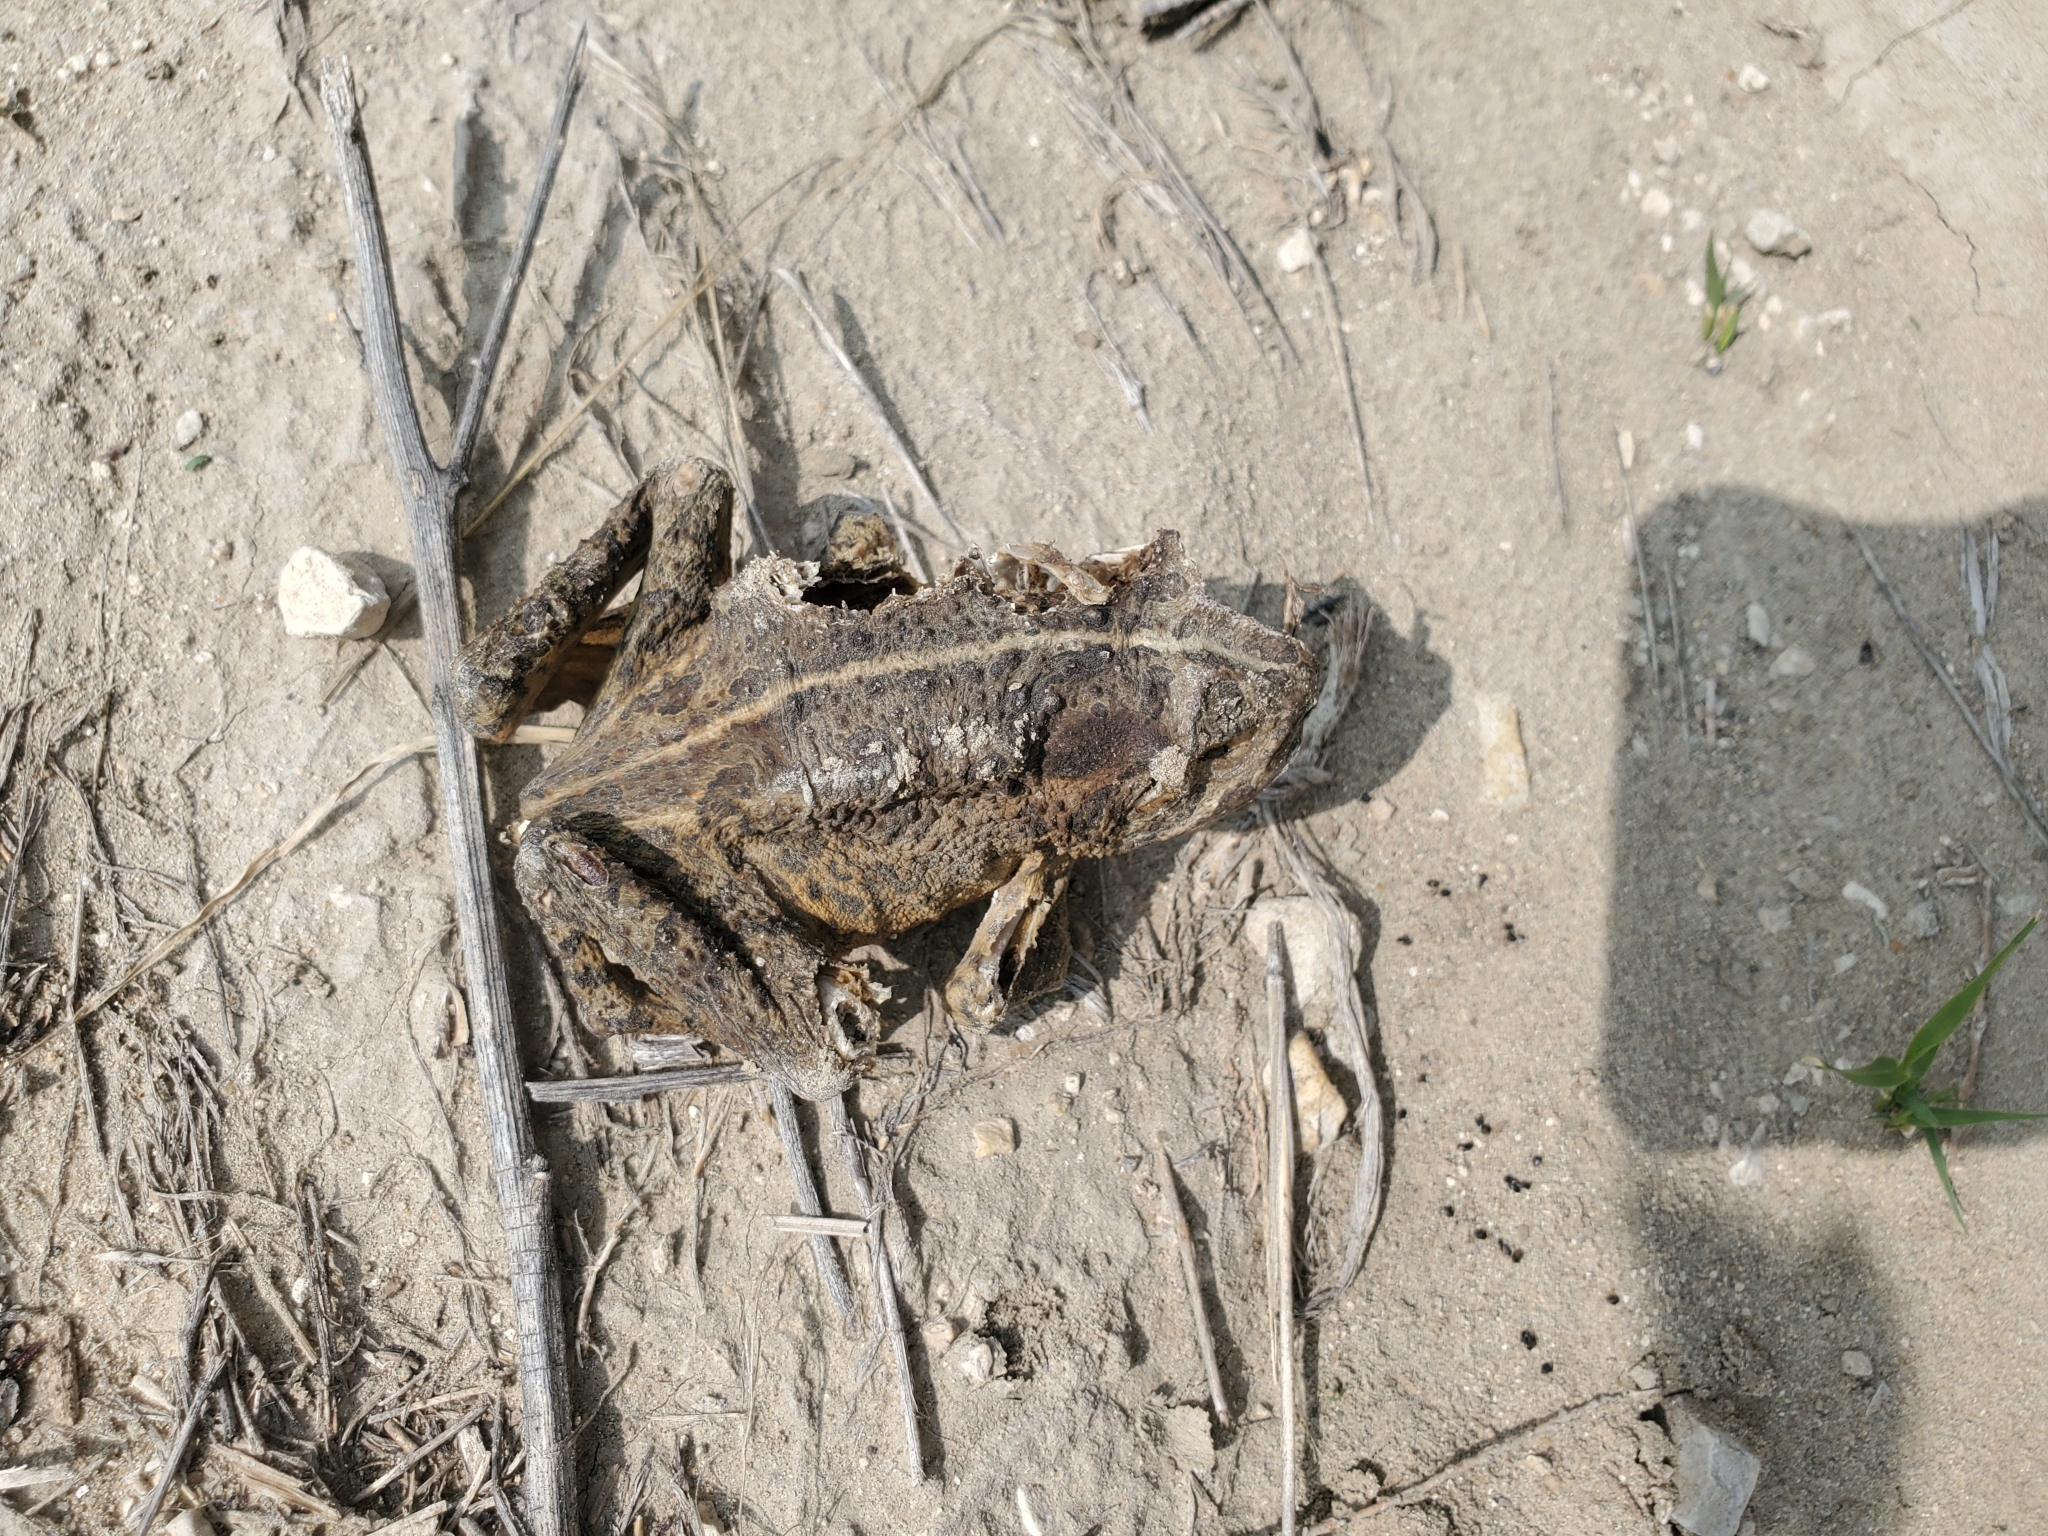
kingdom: Animalia
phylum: Chordata
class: Amphibia
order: Anura
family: Bufonidae
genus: Anaxyrus
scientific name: Anaxyrus woodhousii
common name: Woodhouse's toad
